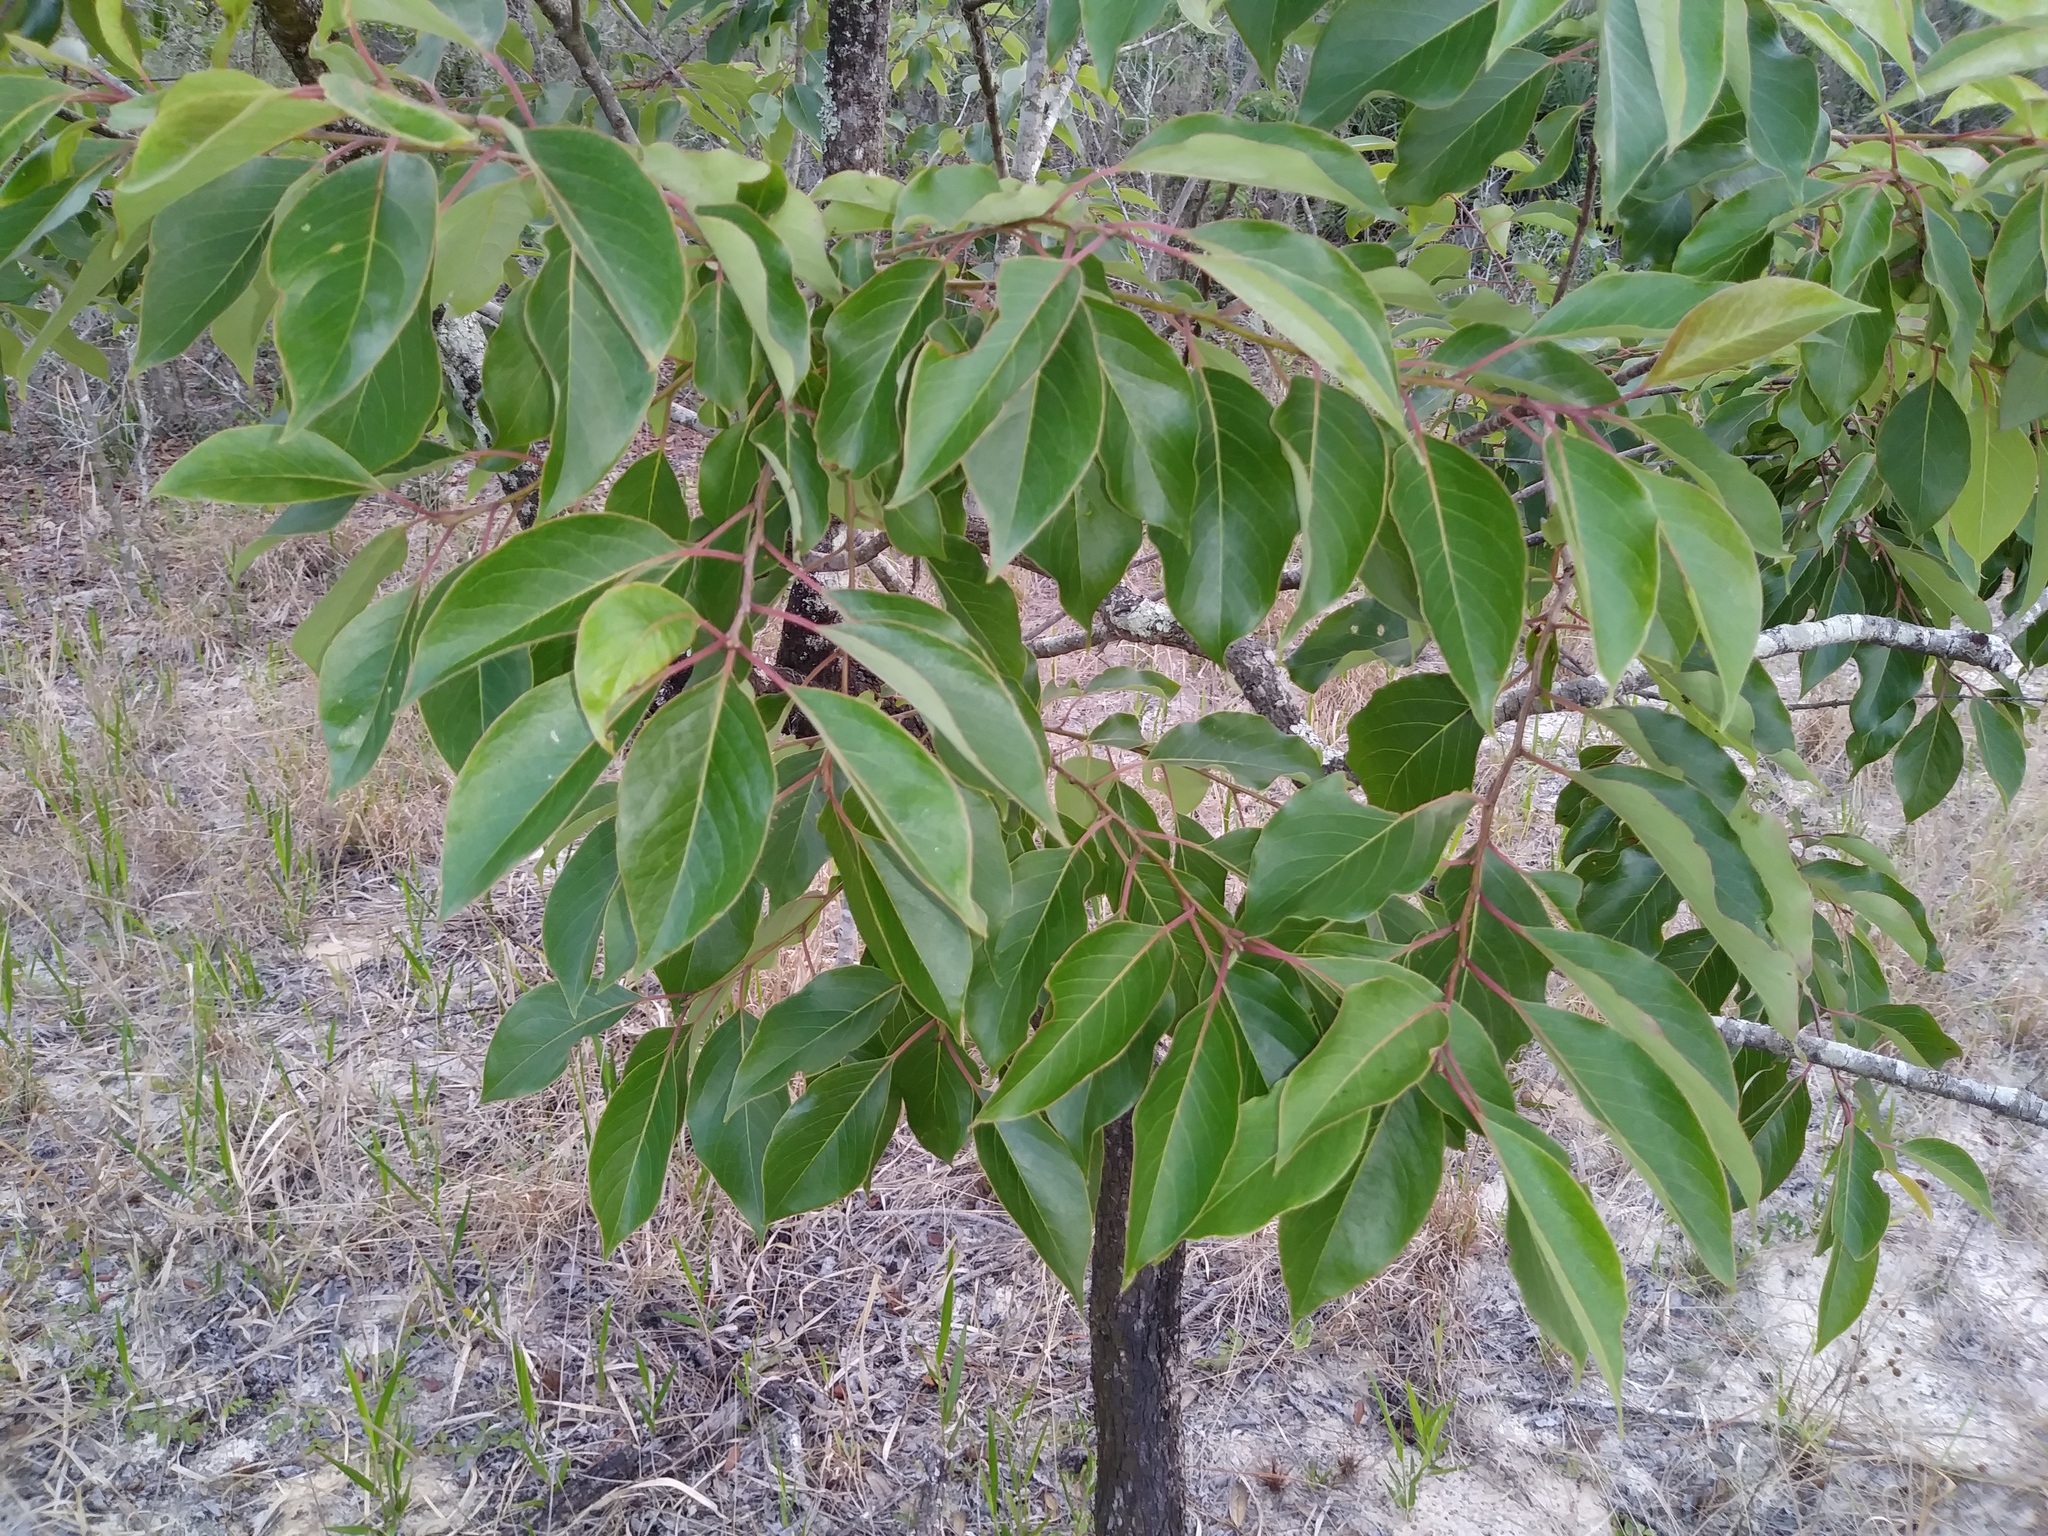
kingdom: Plantae
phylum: Tracheophyta
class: Magnoliopsida
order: Ericales
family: Ebenaceae
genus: Diospyros
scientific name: Diospyros virginiana
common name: Persimmon
